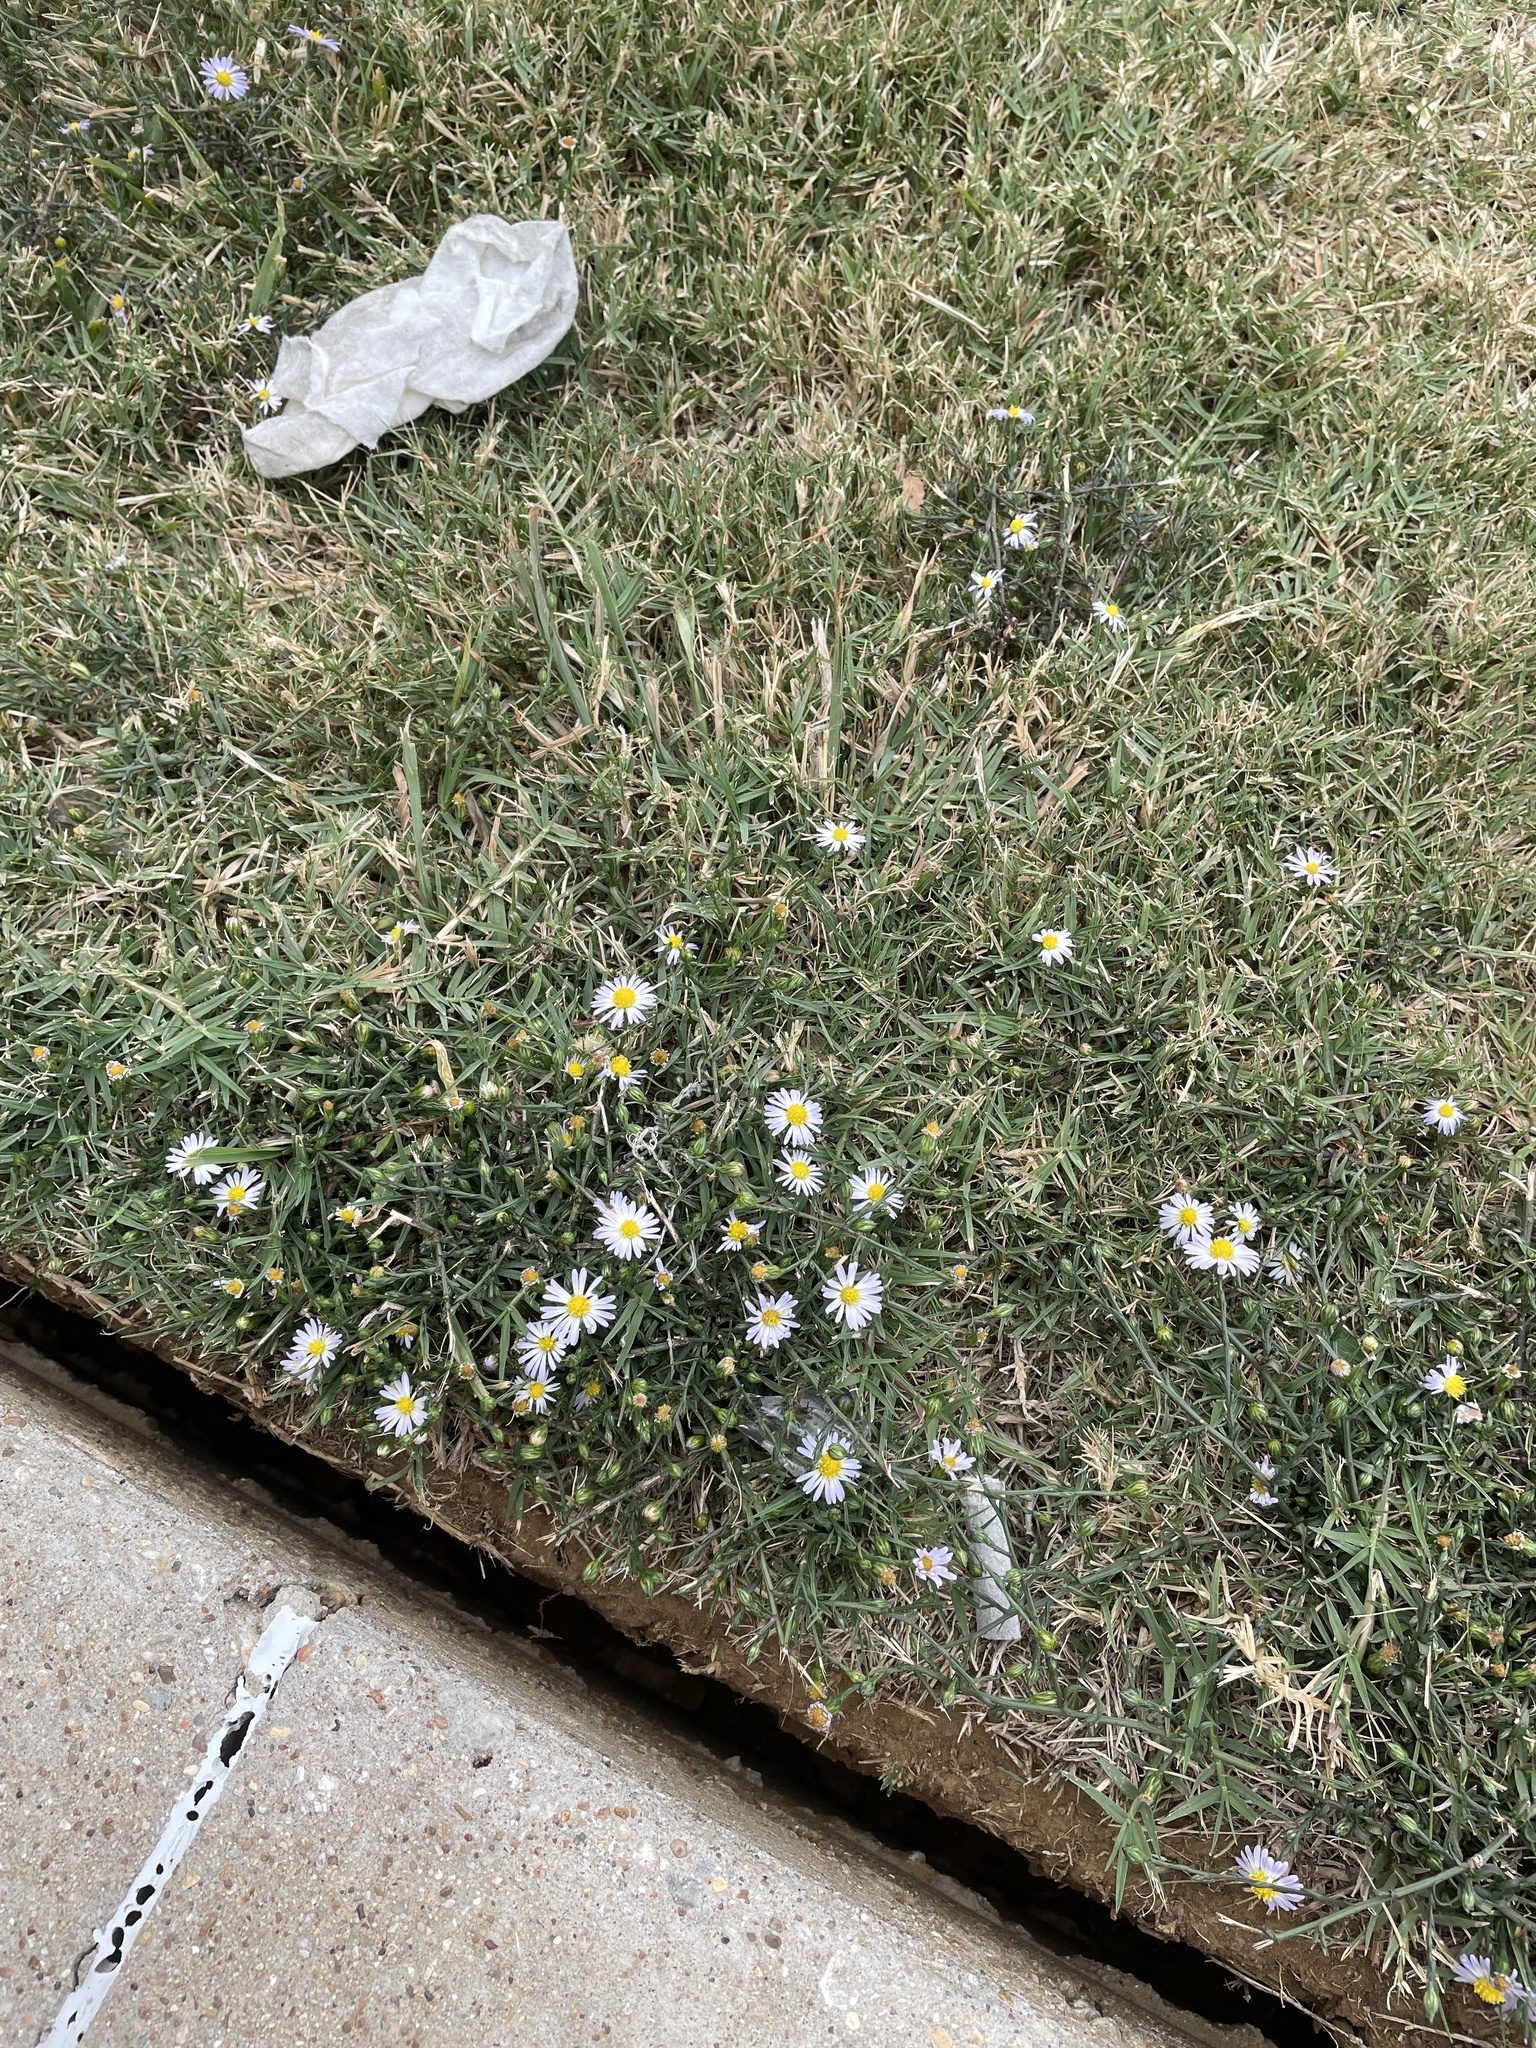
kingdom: Plantae
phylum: Tracheophyta
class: Magnoliopsida
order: Asterales
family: Asteraceae
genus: Symphyotrichum
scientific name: Symphyotrichum divaricatum
